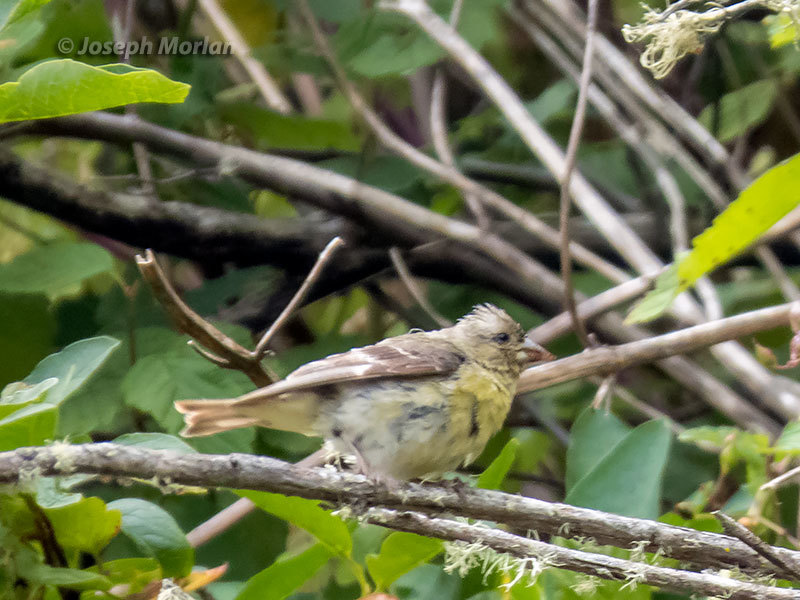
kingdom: Animalia
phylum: Chordata
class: Aves
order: Passeriformes
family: Fringillidae
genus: Spinus
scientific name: Spinus psaltria
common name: Lesser goldfinch
